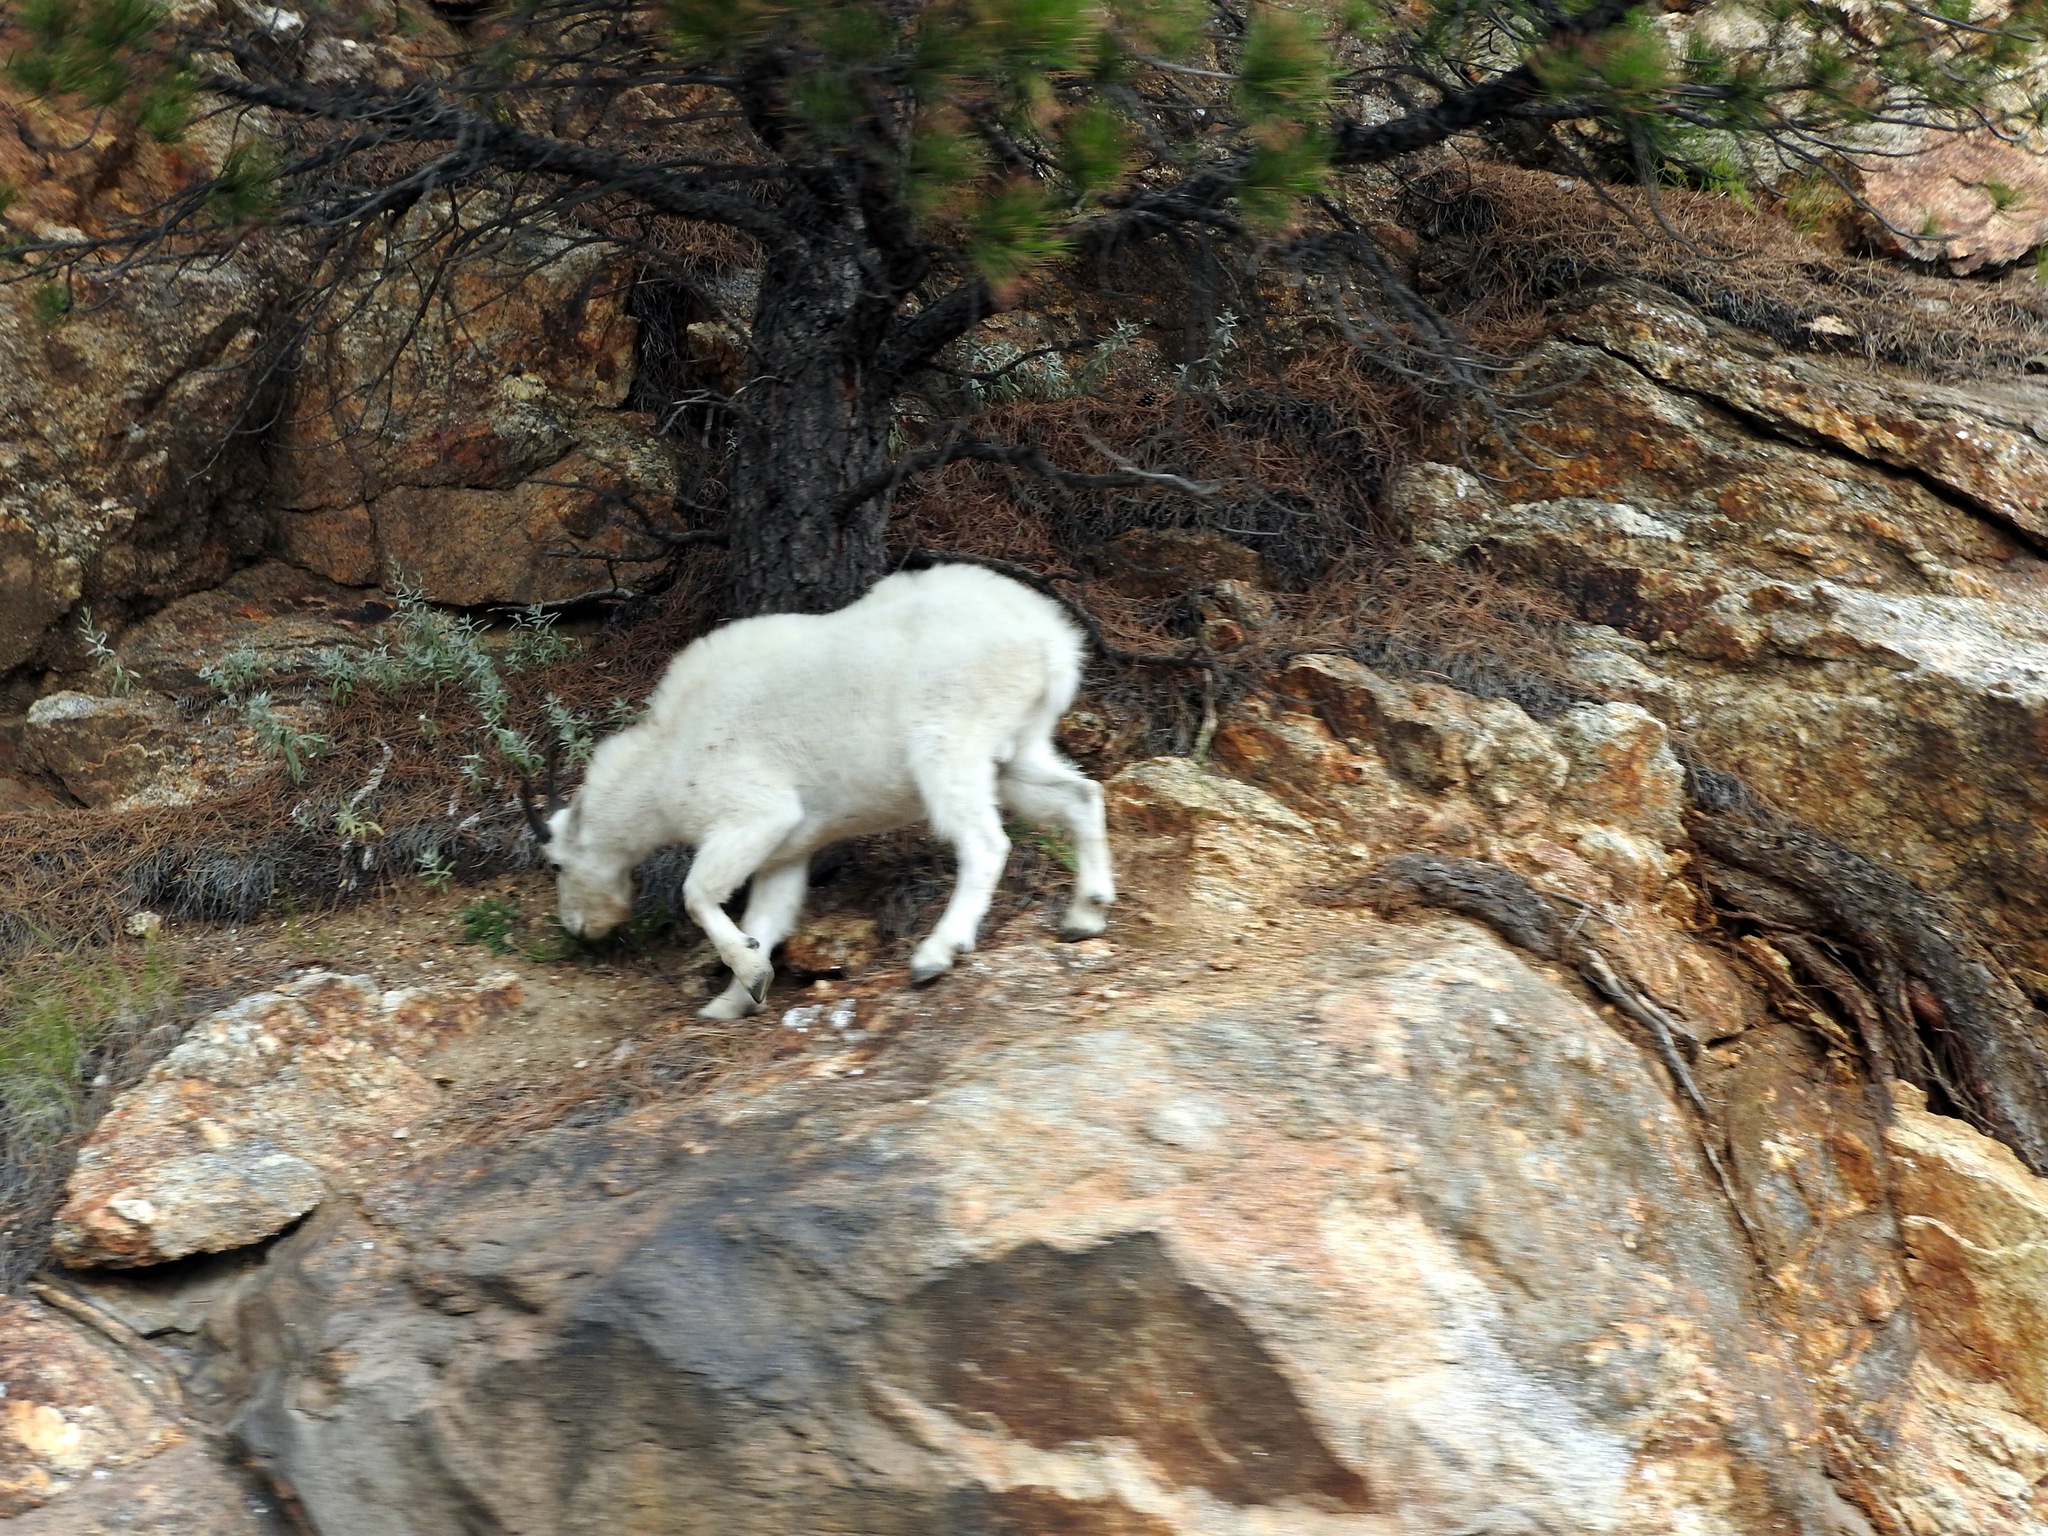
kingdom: Animalia
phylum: Chordata
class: Mammalia
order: Artiodactyla
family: Bovidae
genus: Oreamnos
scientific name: Oreamnos americanus
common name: Mountain goat
